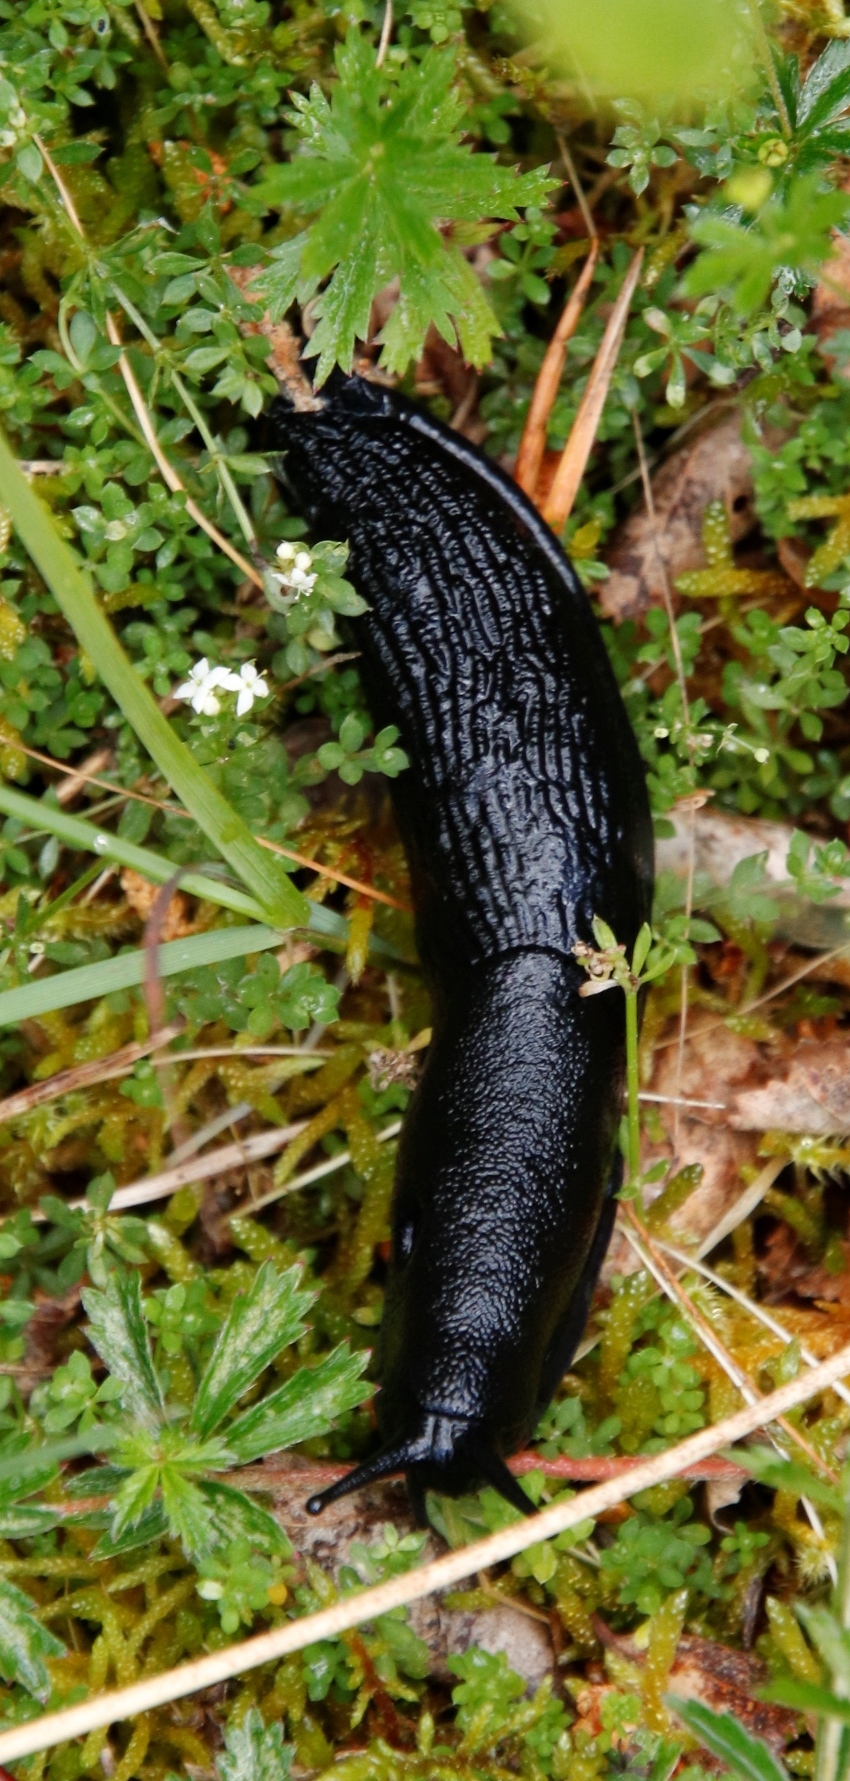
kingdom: Animalia
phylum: Mollusca
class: Gastropoda
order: Stylommatophora
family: Arionidae
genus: Arion
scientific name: Arion ater
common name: Black arion
